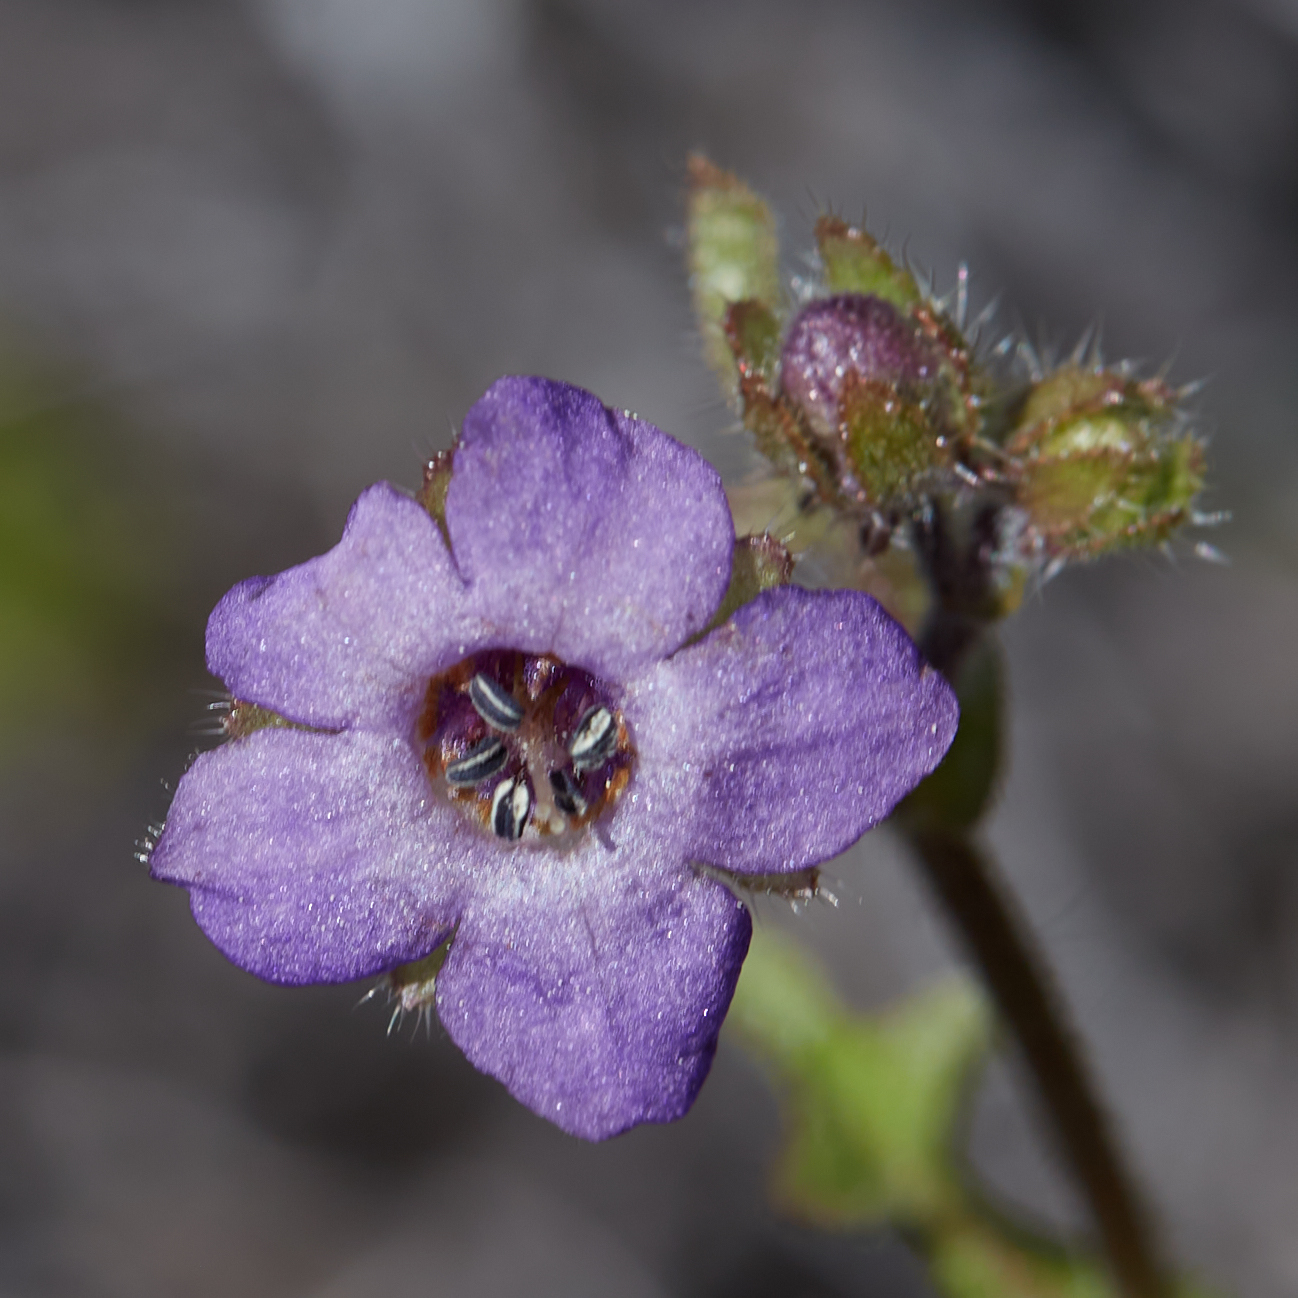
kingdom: Plantae
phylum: Tracheophyta
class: Magnoliopsida
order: Boraginales
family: Hydrophyllaceae
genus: Pholistoma
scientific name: Pholistoma auritum
